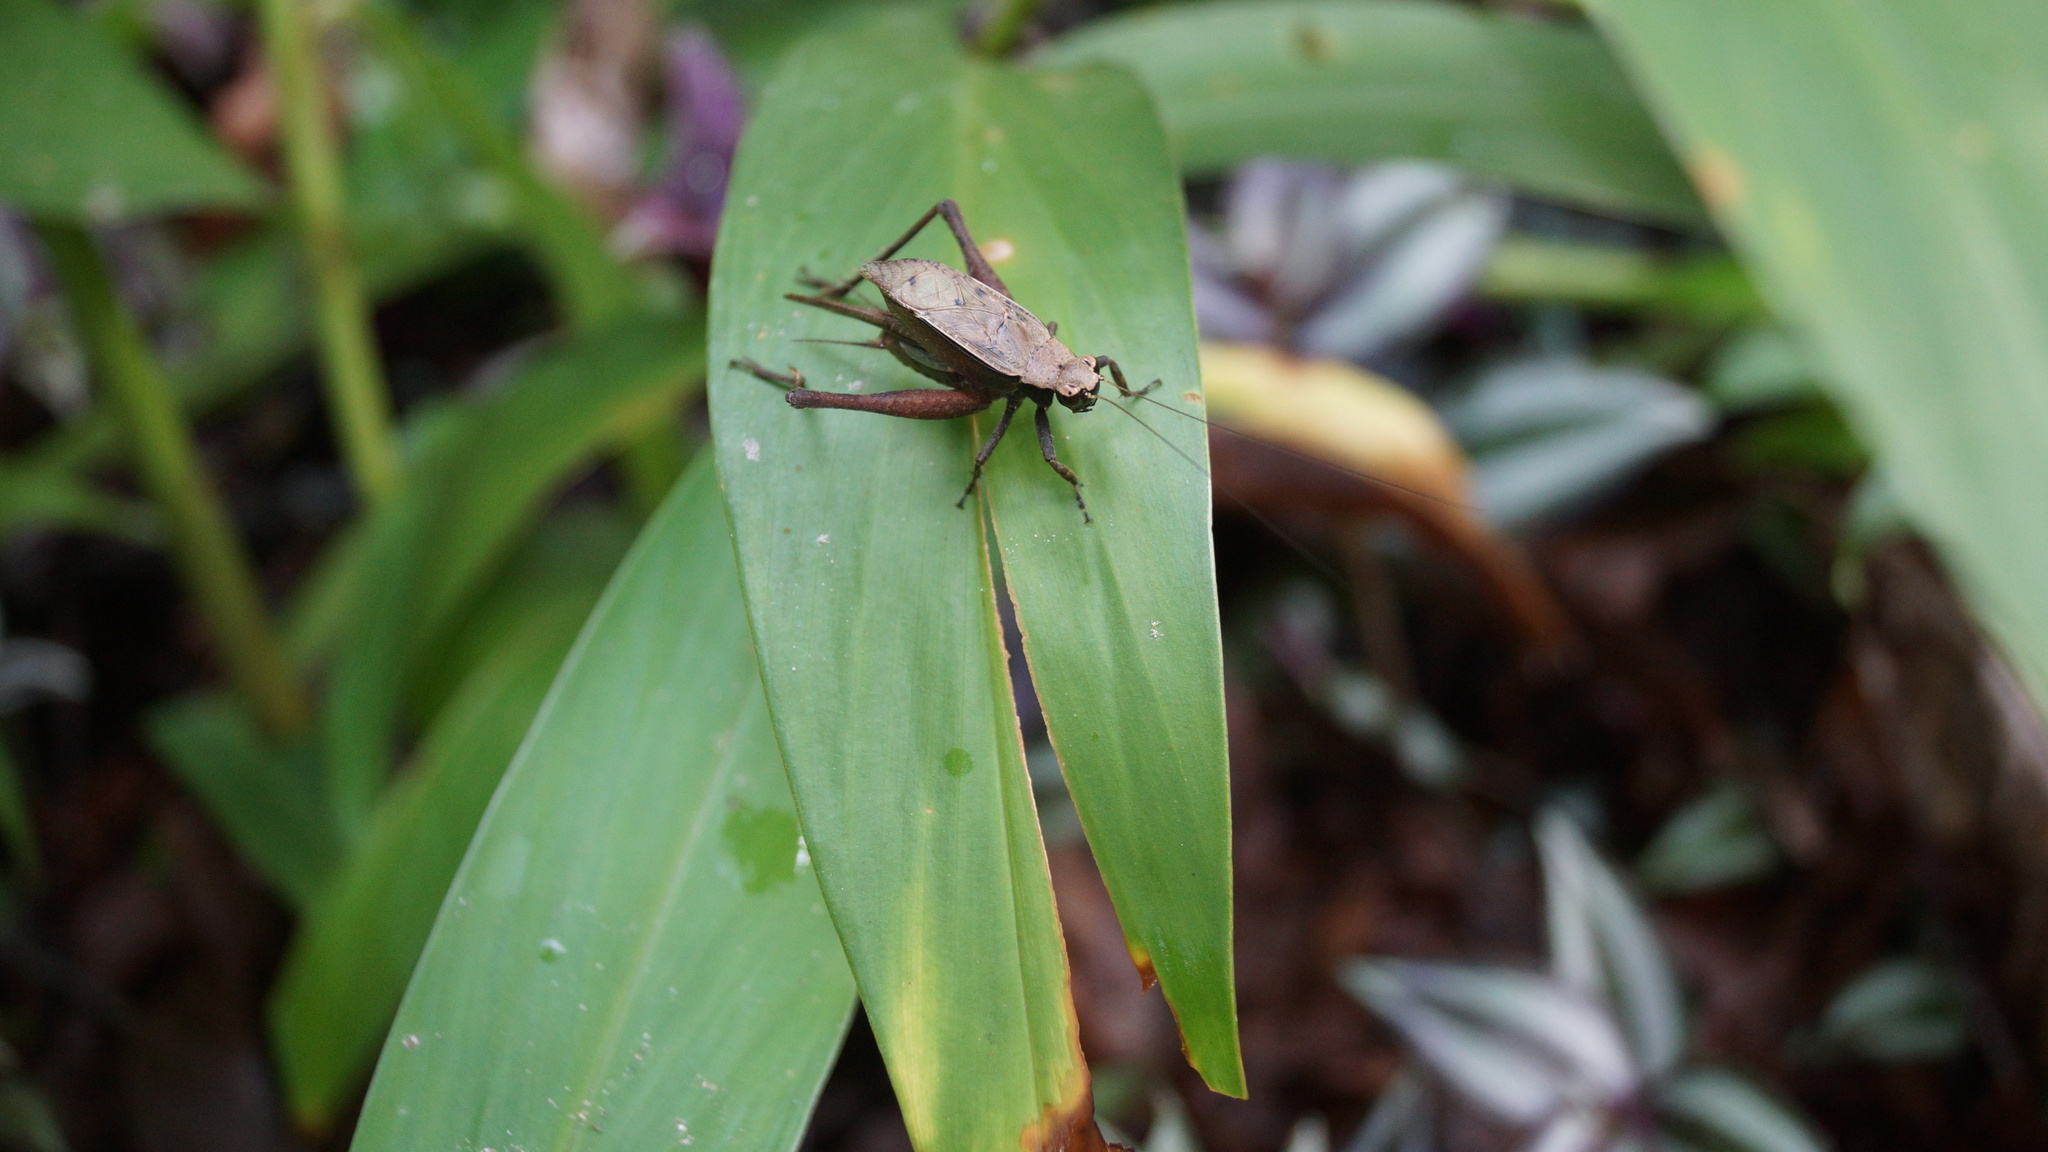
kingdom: Animalia
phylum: Arthropoda
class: Insecta
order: Orthoptera
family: Gryllidae
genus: Eneoptera
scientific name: Eneoptera surinamensis
